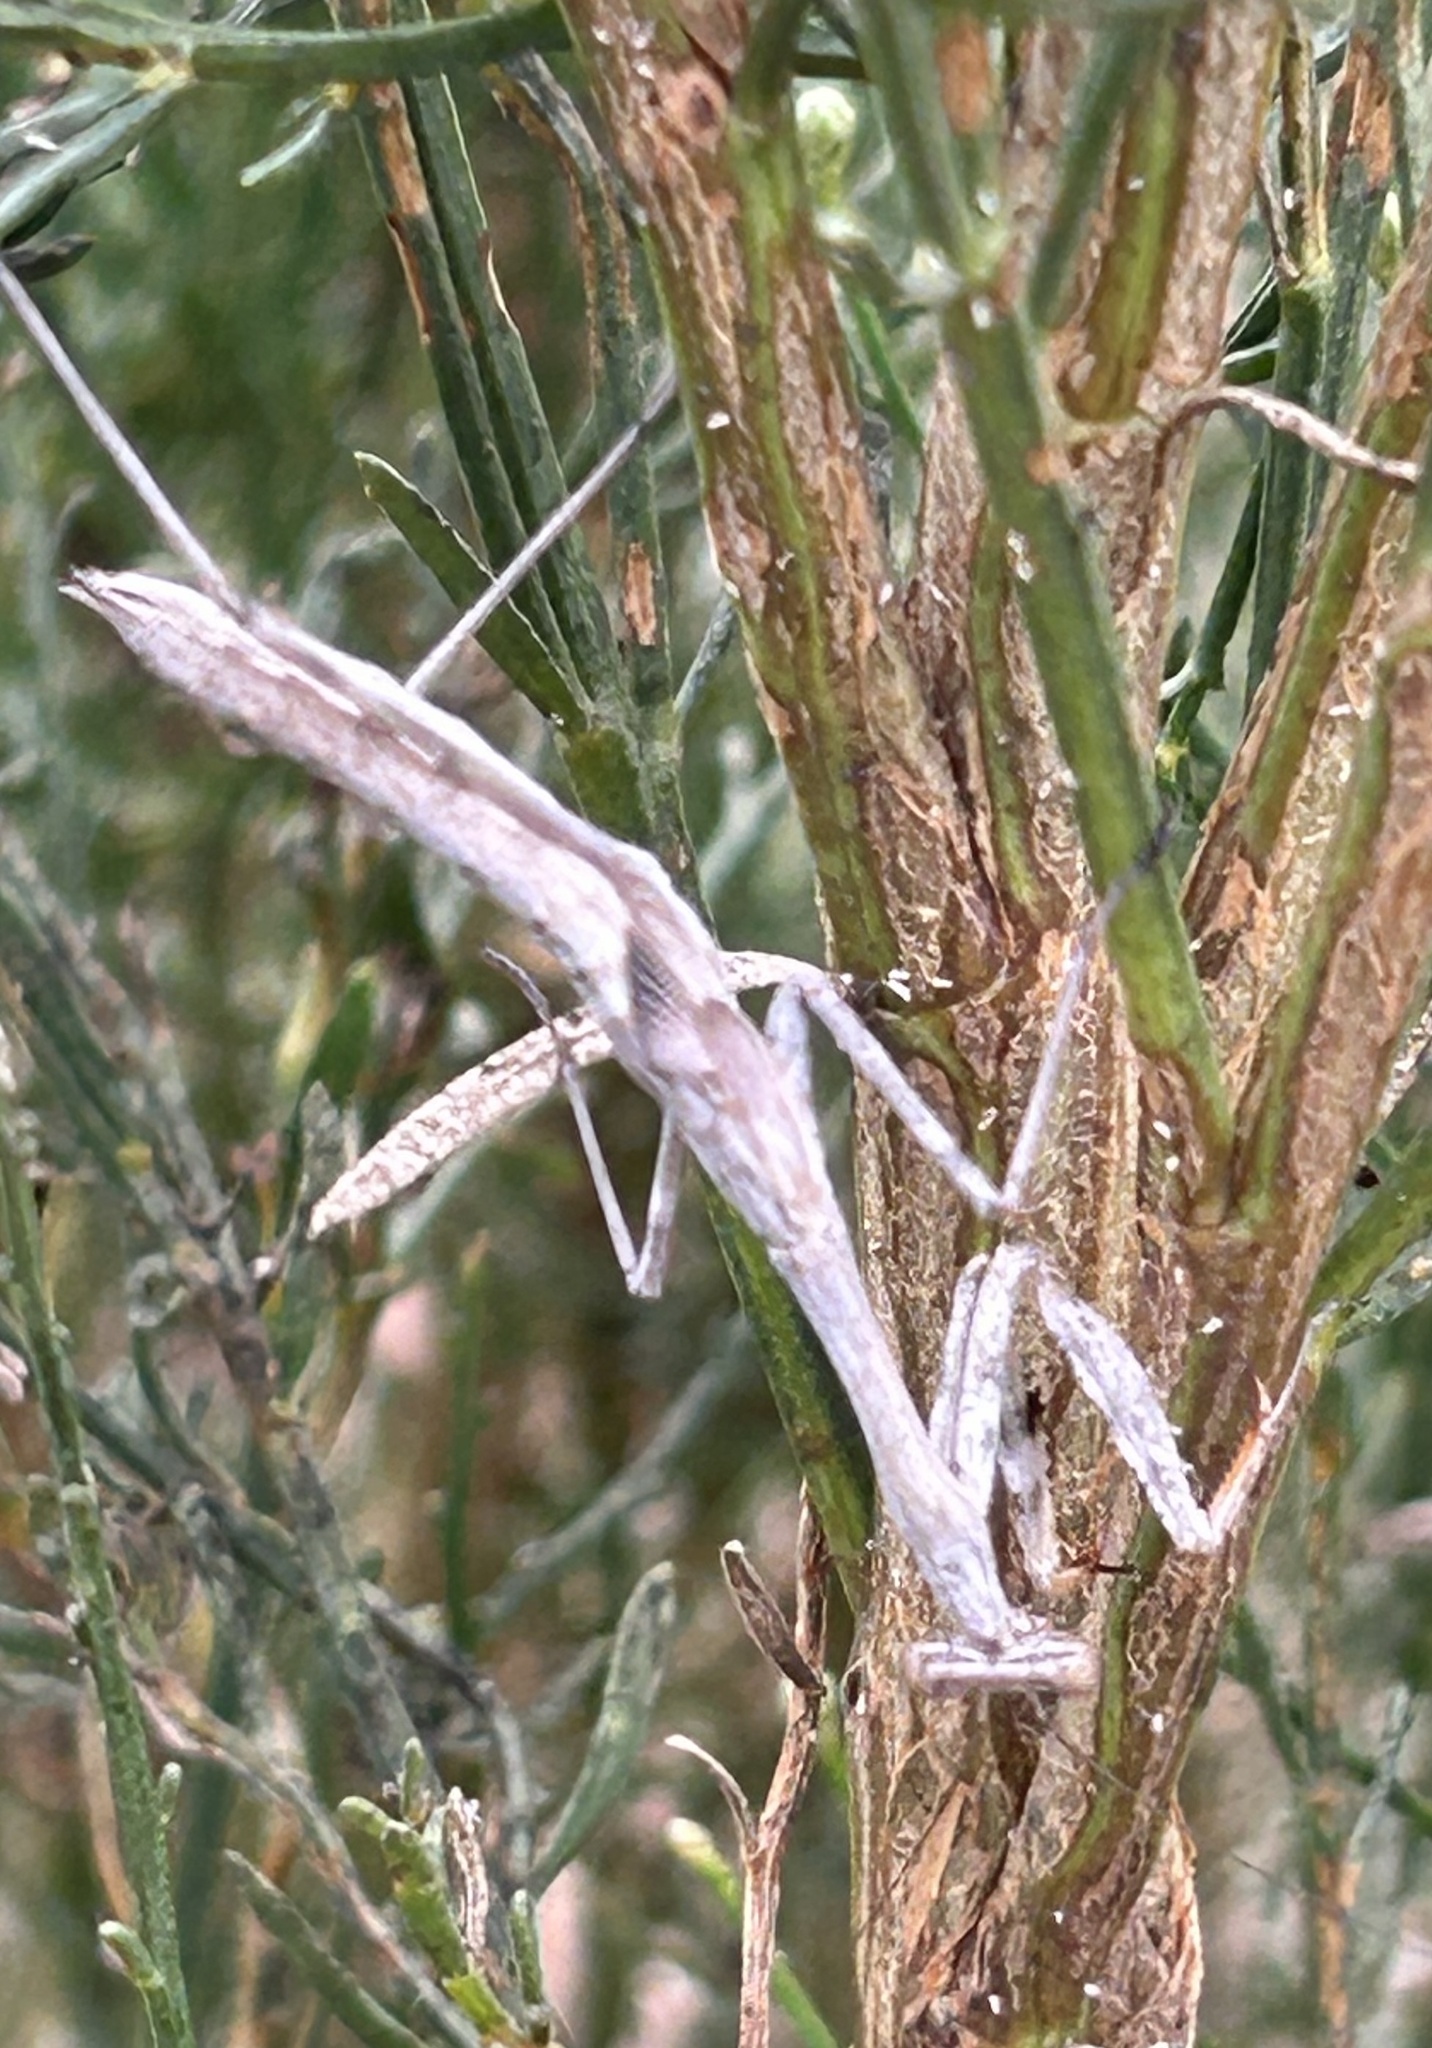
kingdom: Animalia
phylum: Arthropoda
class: Insecta
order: Mantodea
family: Mantidae
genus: Stagmomantis
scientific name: Stagmomantis californica
